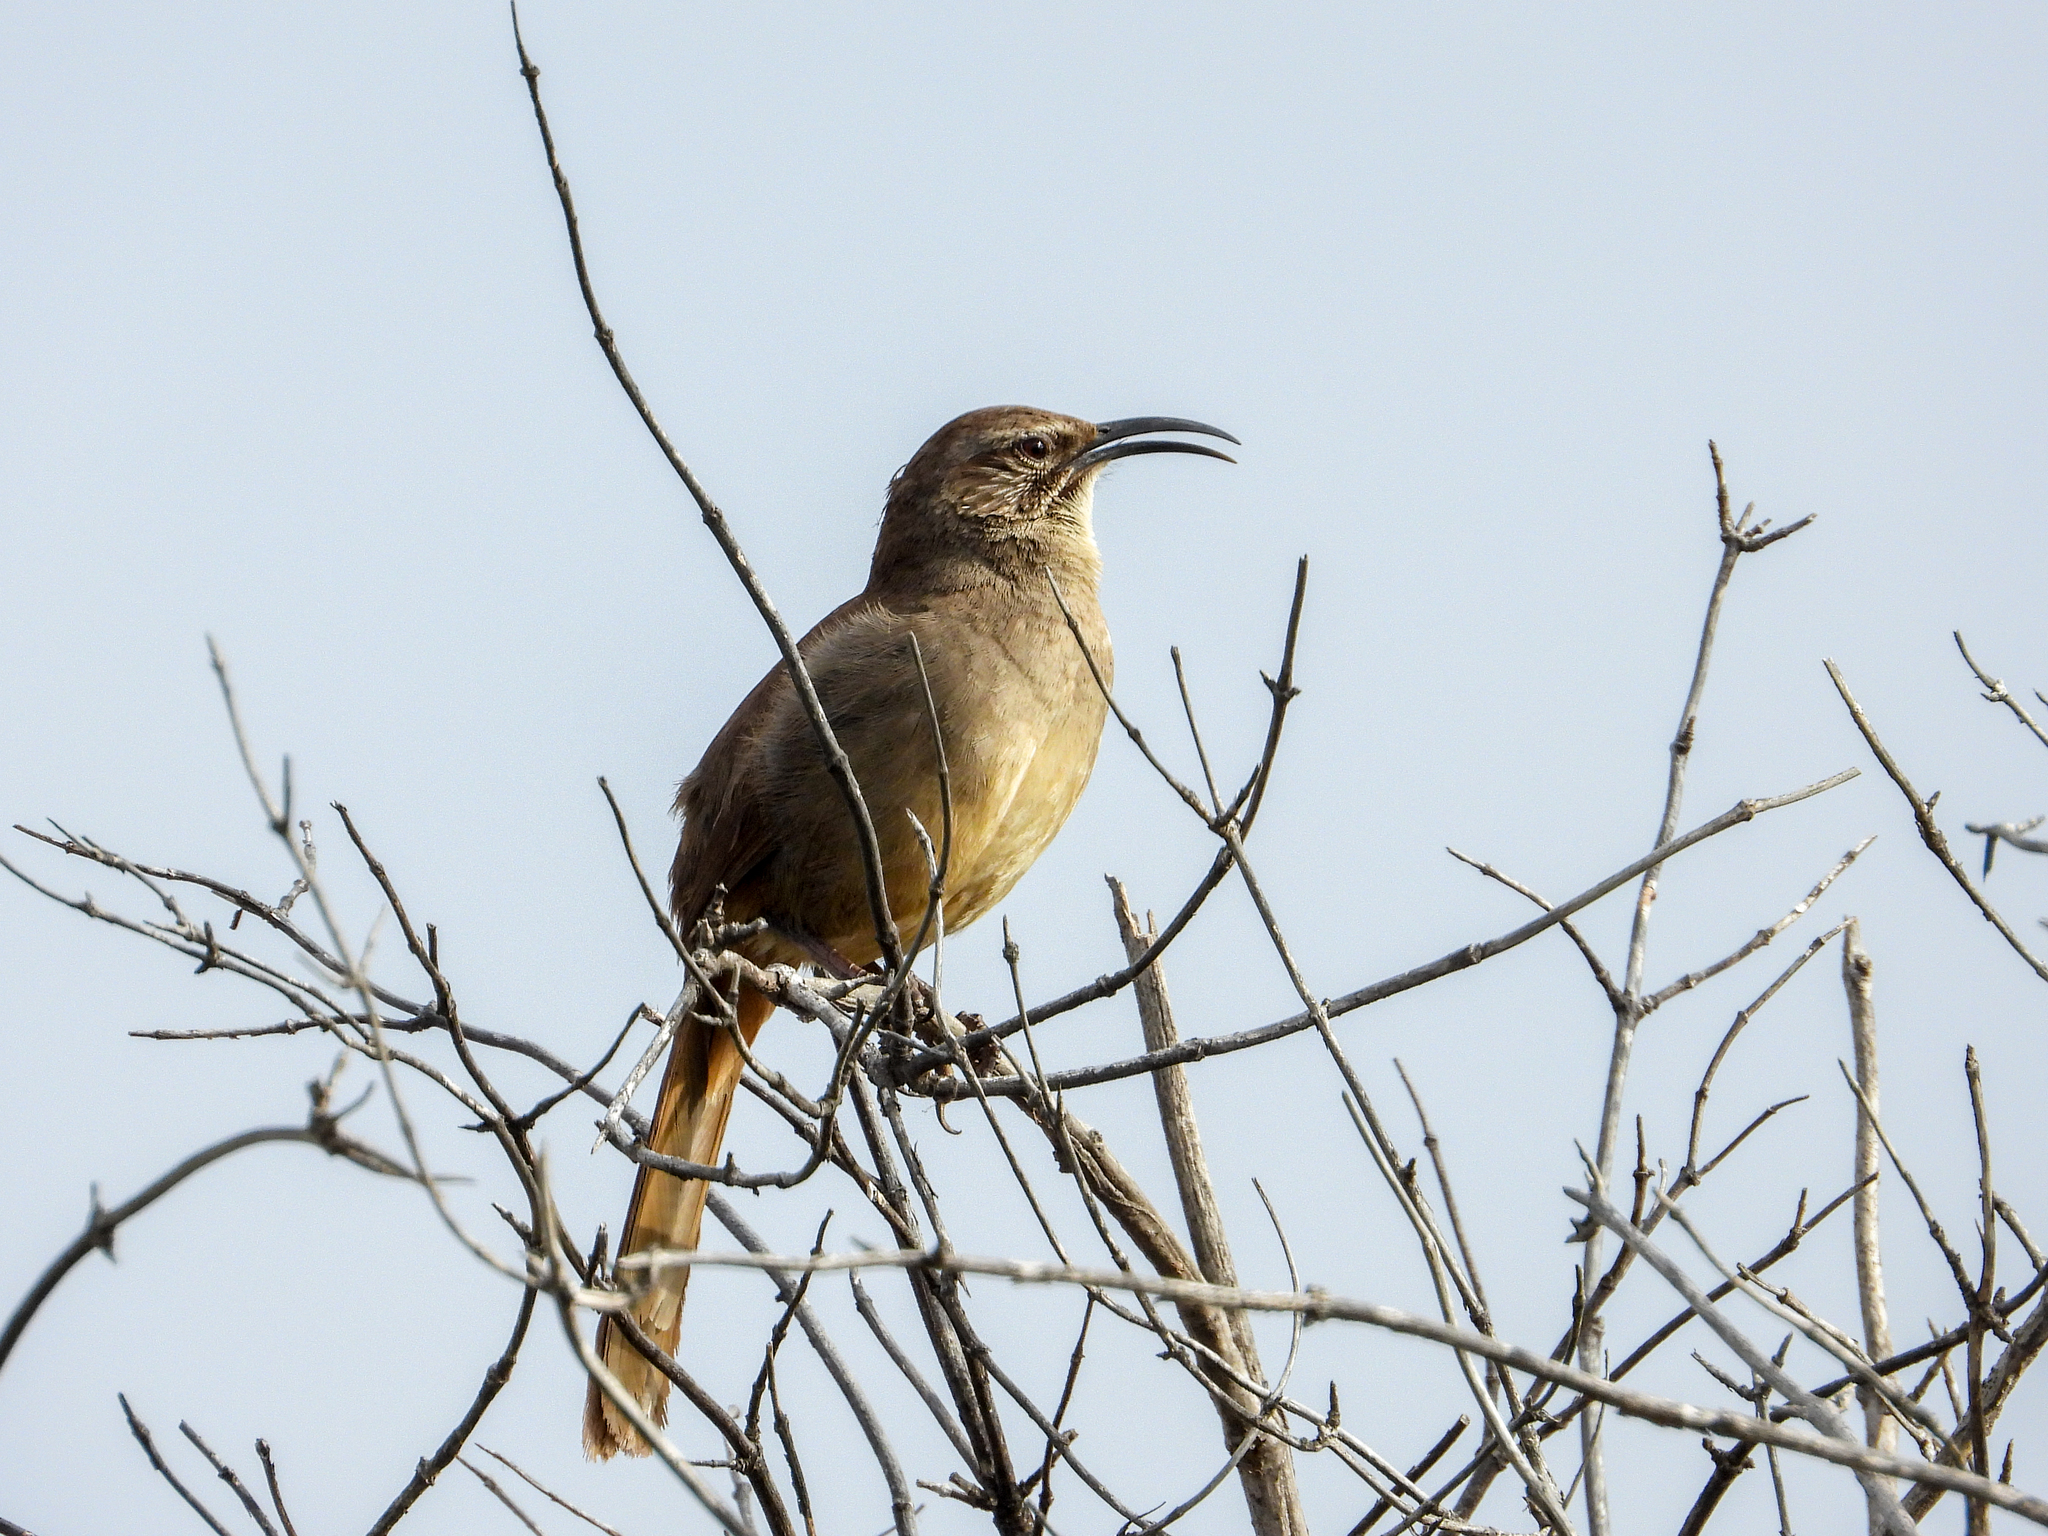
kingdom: Animalia
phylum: Chordata
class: Aves
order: Passeriformes
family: Mimidae
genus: Toxostoma
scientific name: Toxostoma redivivum
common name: California thrasher
